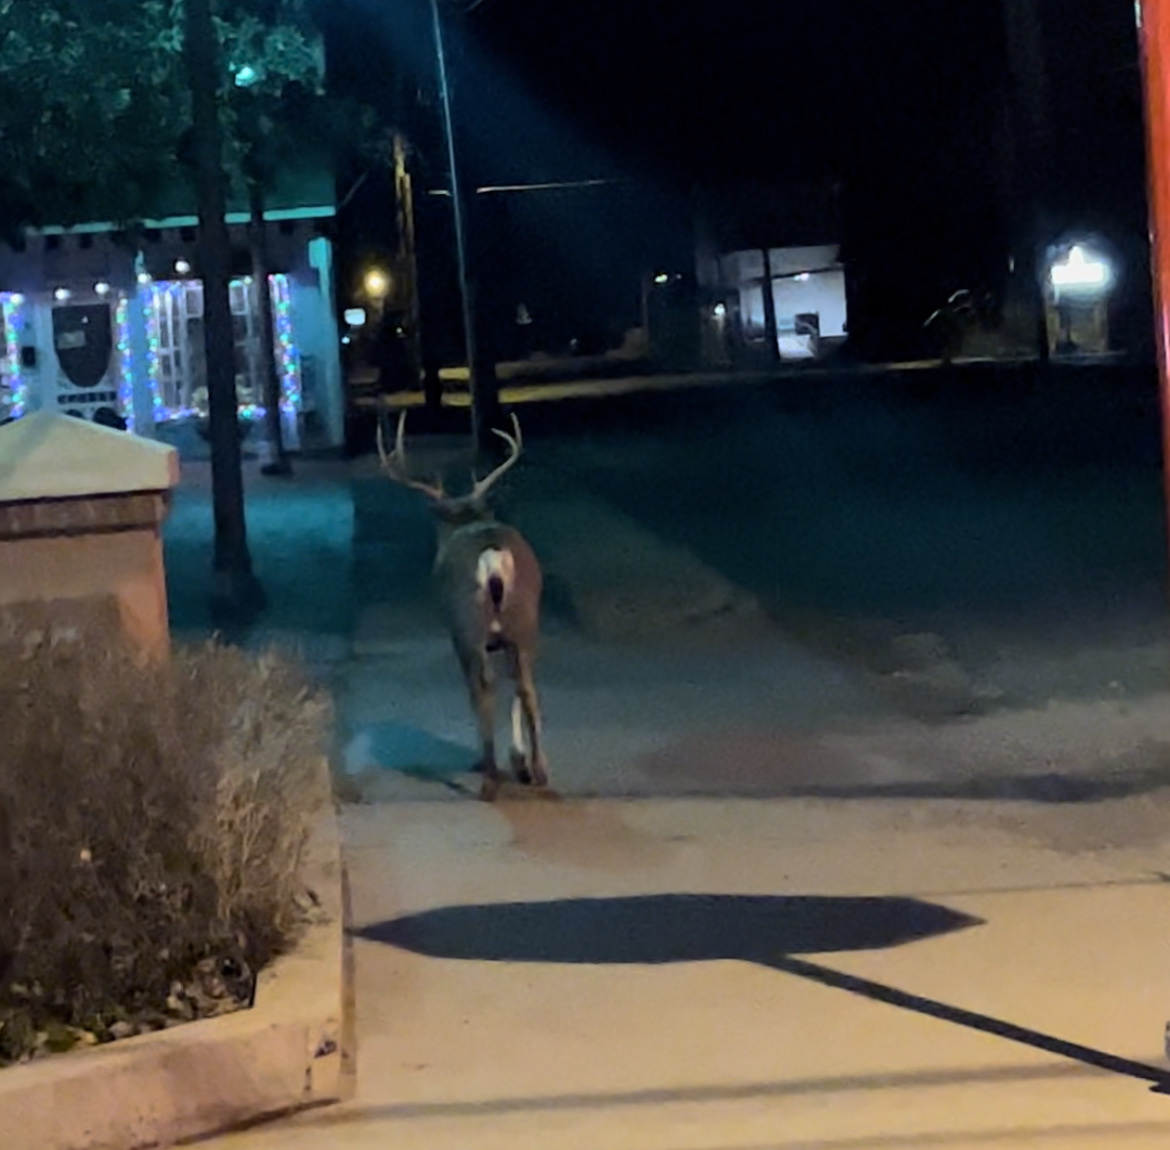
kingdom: Animalia
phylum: Chordata
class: Mammalia
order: Artiodactyla
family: Cervidae
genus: Odocoileus
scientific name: Odocoileus hemionus
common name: Mule deer
